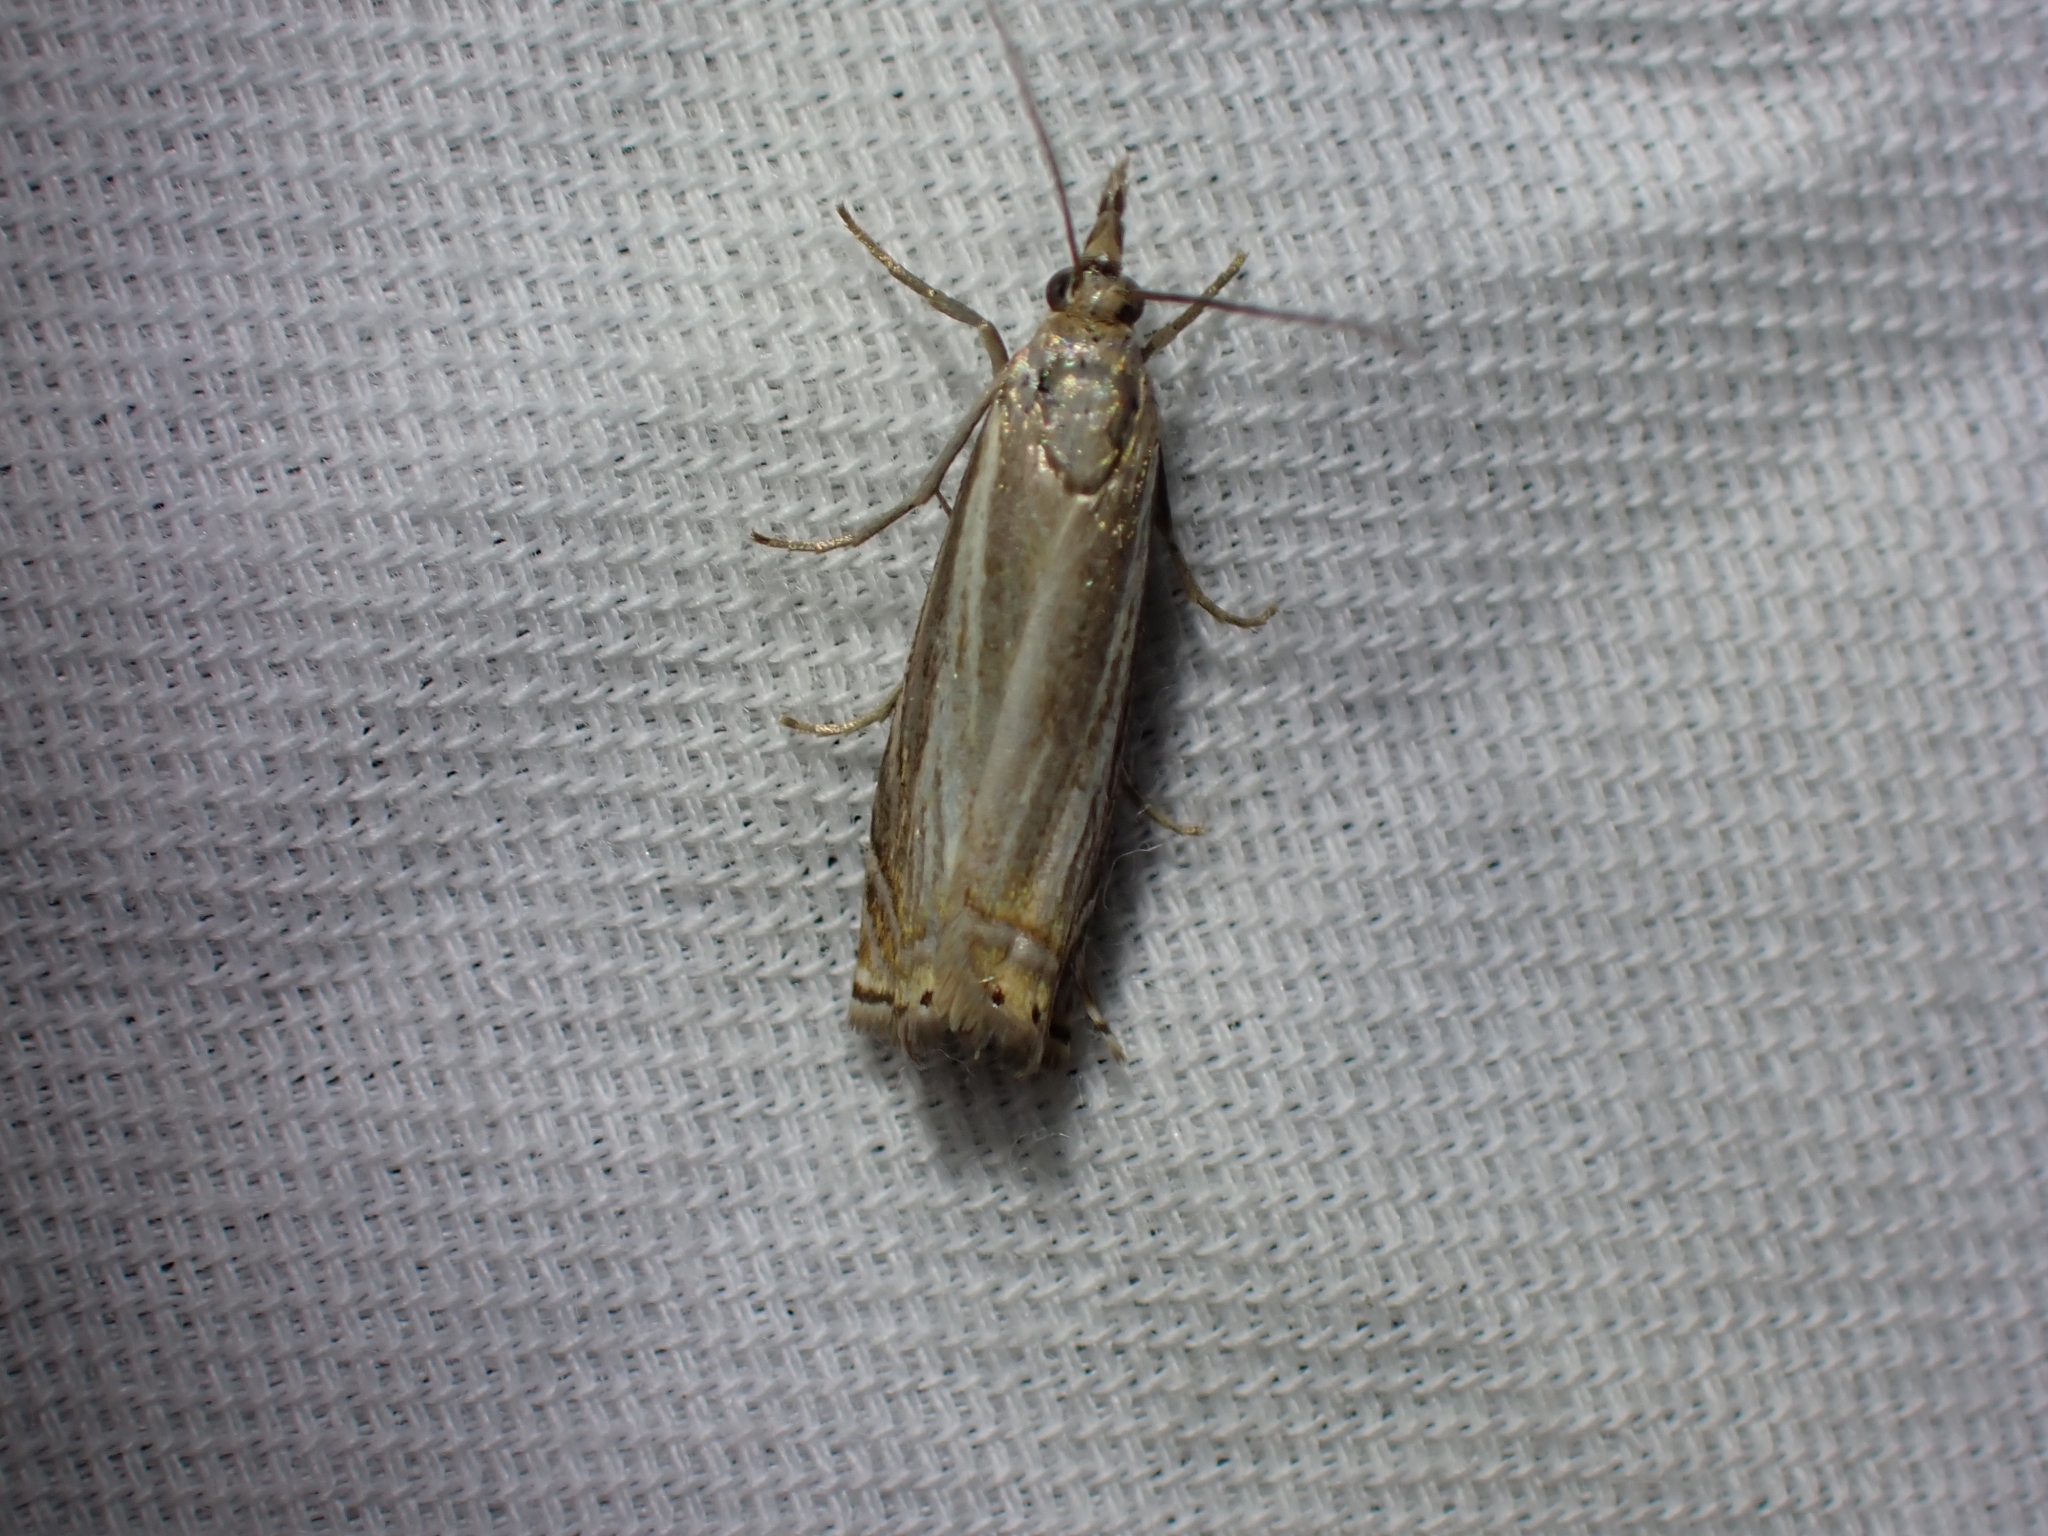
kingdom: Animalia
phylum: Arthropoda
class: Insecta
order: Lepidoptera
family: Crambidae
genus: Chrysoteuchia
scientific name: Chrysoteuchia topiarius
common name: Topiary grass-veneer
